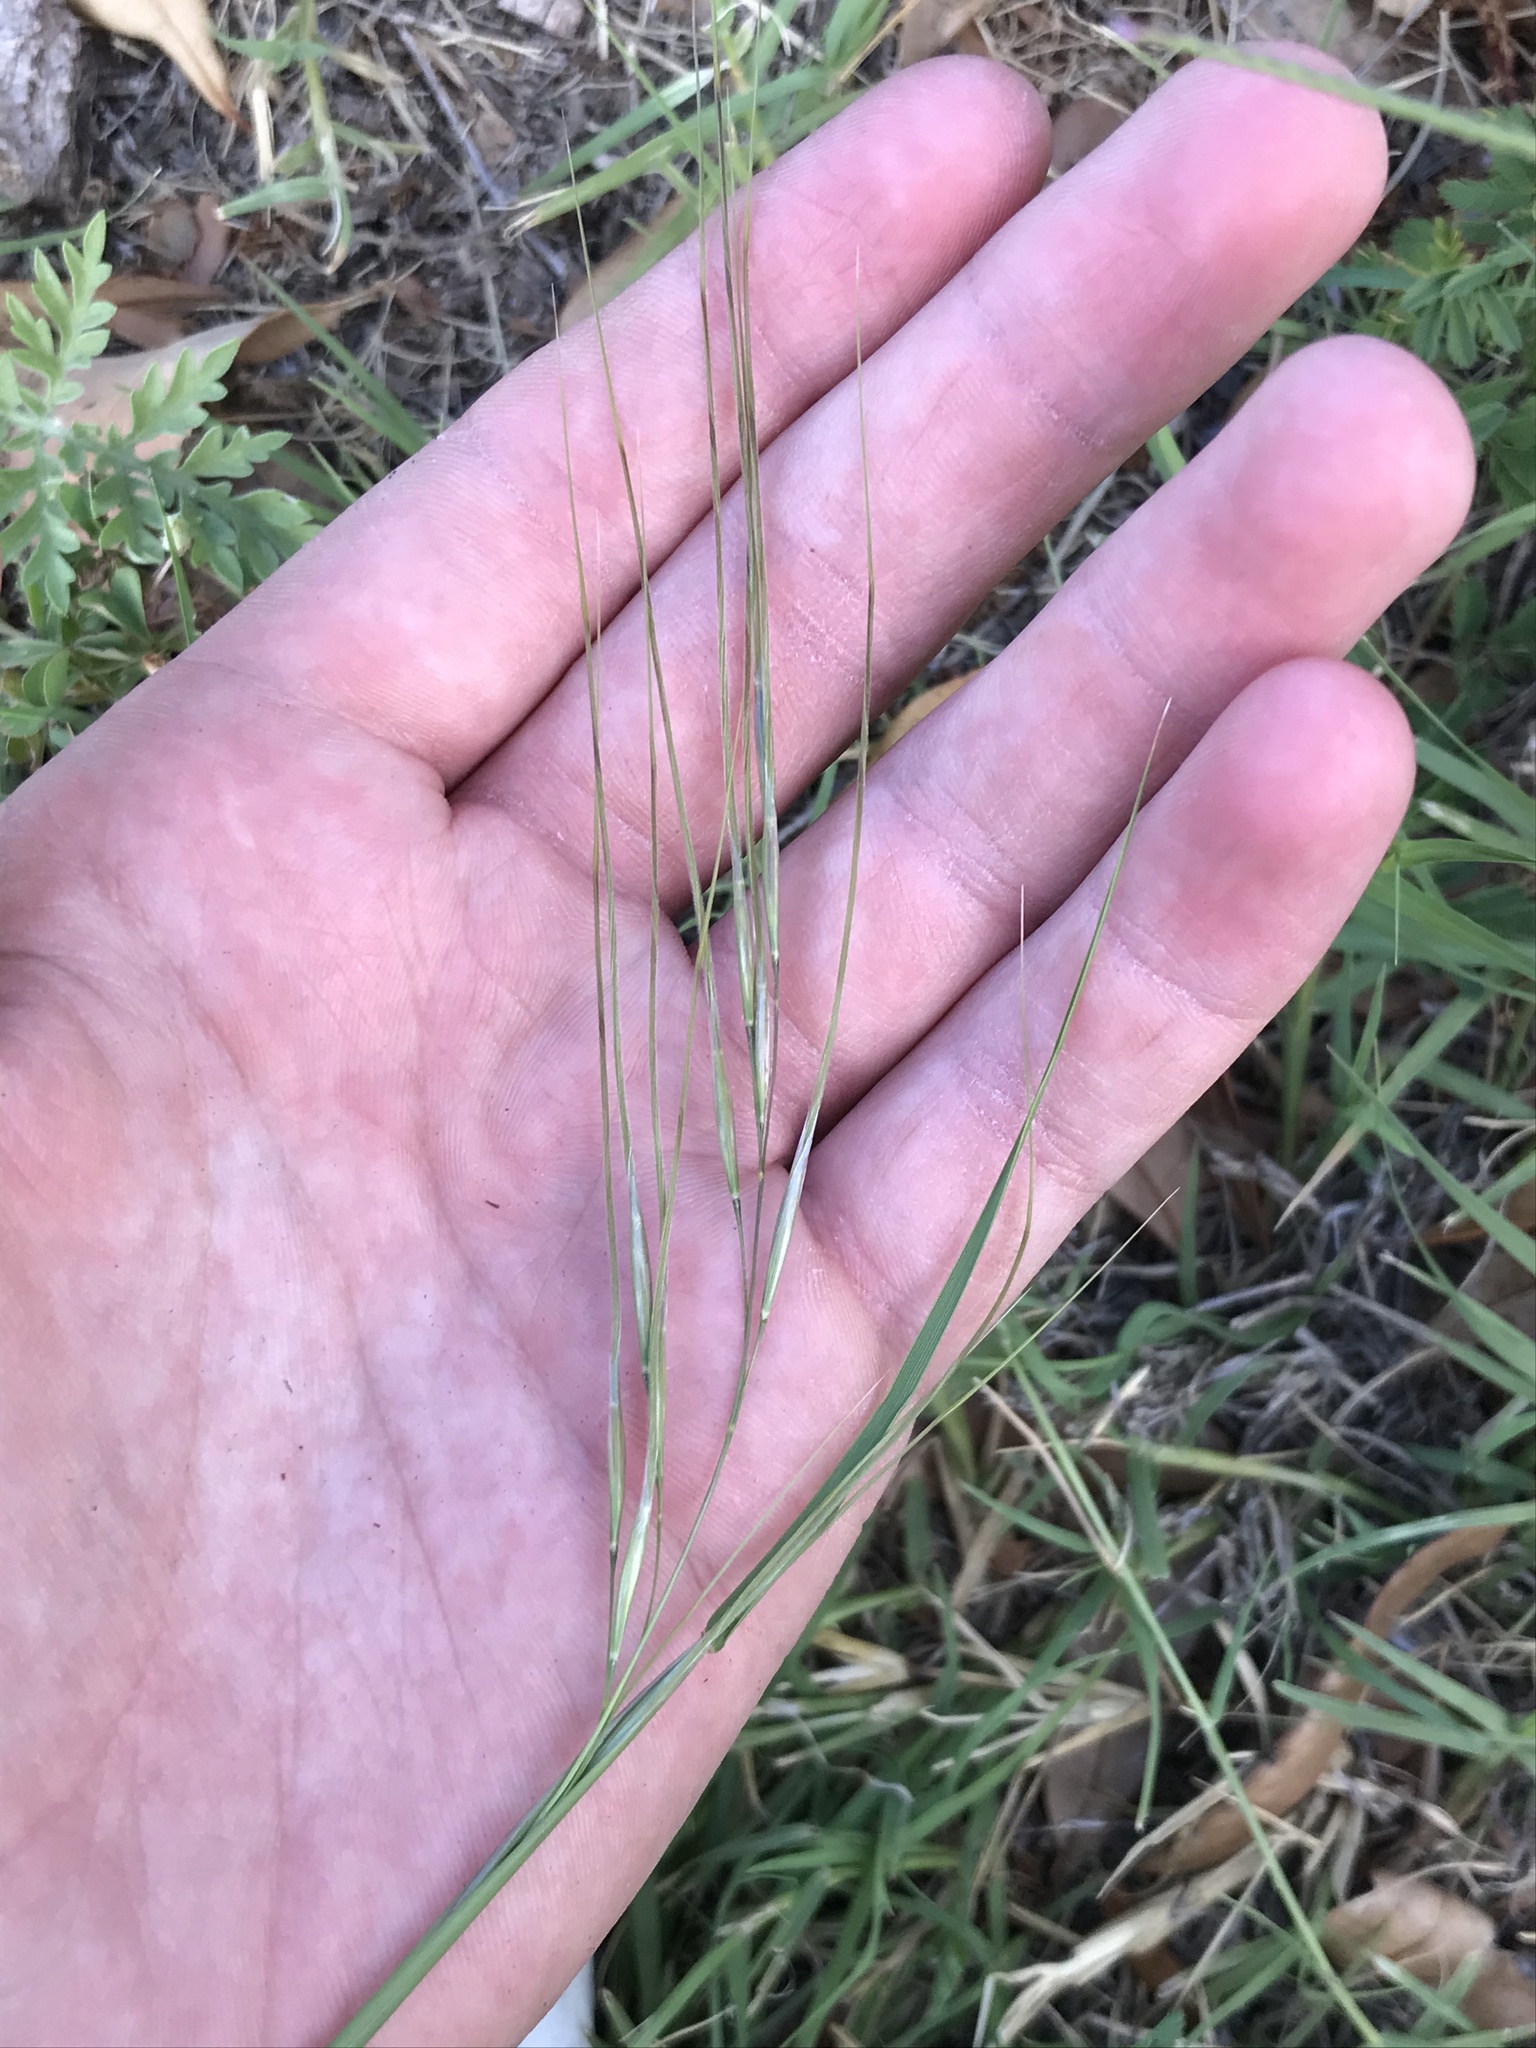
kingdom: Plantae
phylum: Tracheophyta
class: Liliopsida
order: Poales
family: Poaceae
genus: Nassella
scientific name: Nassella leucotricha
